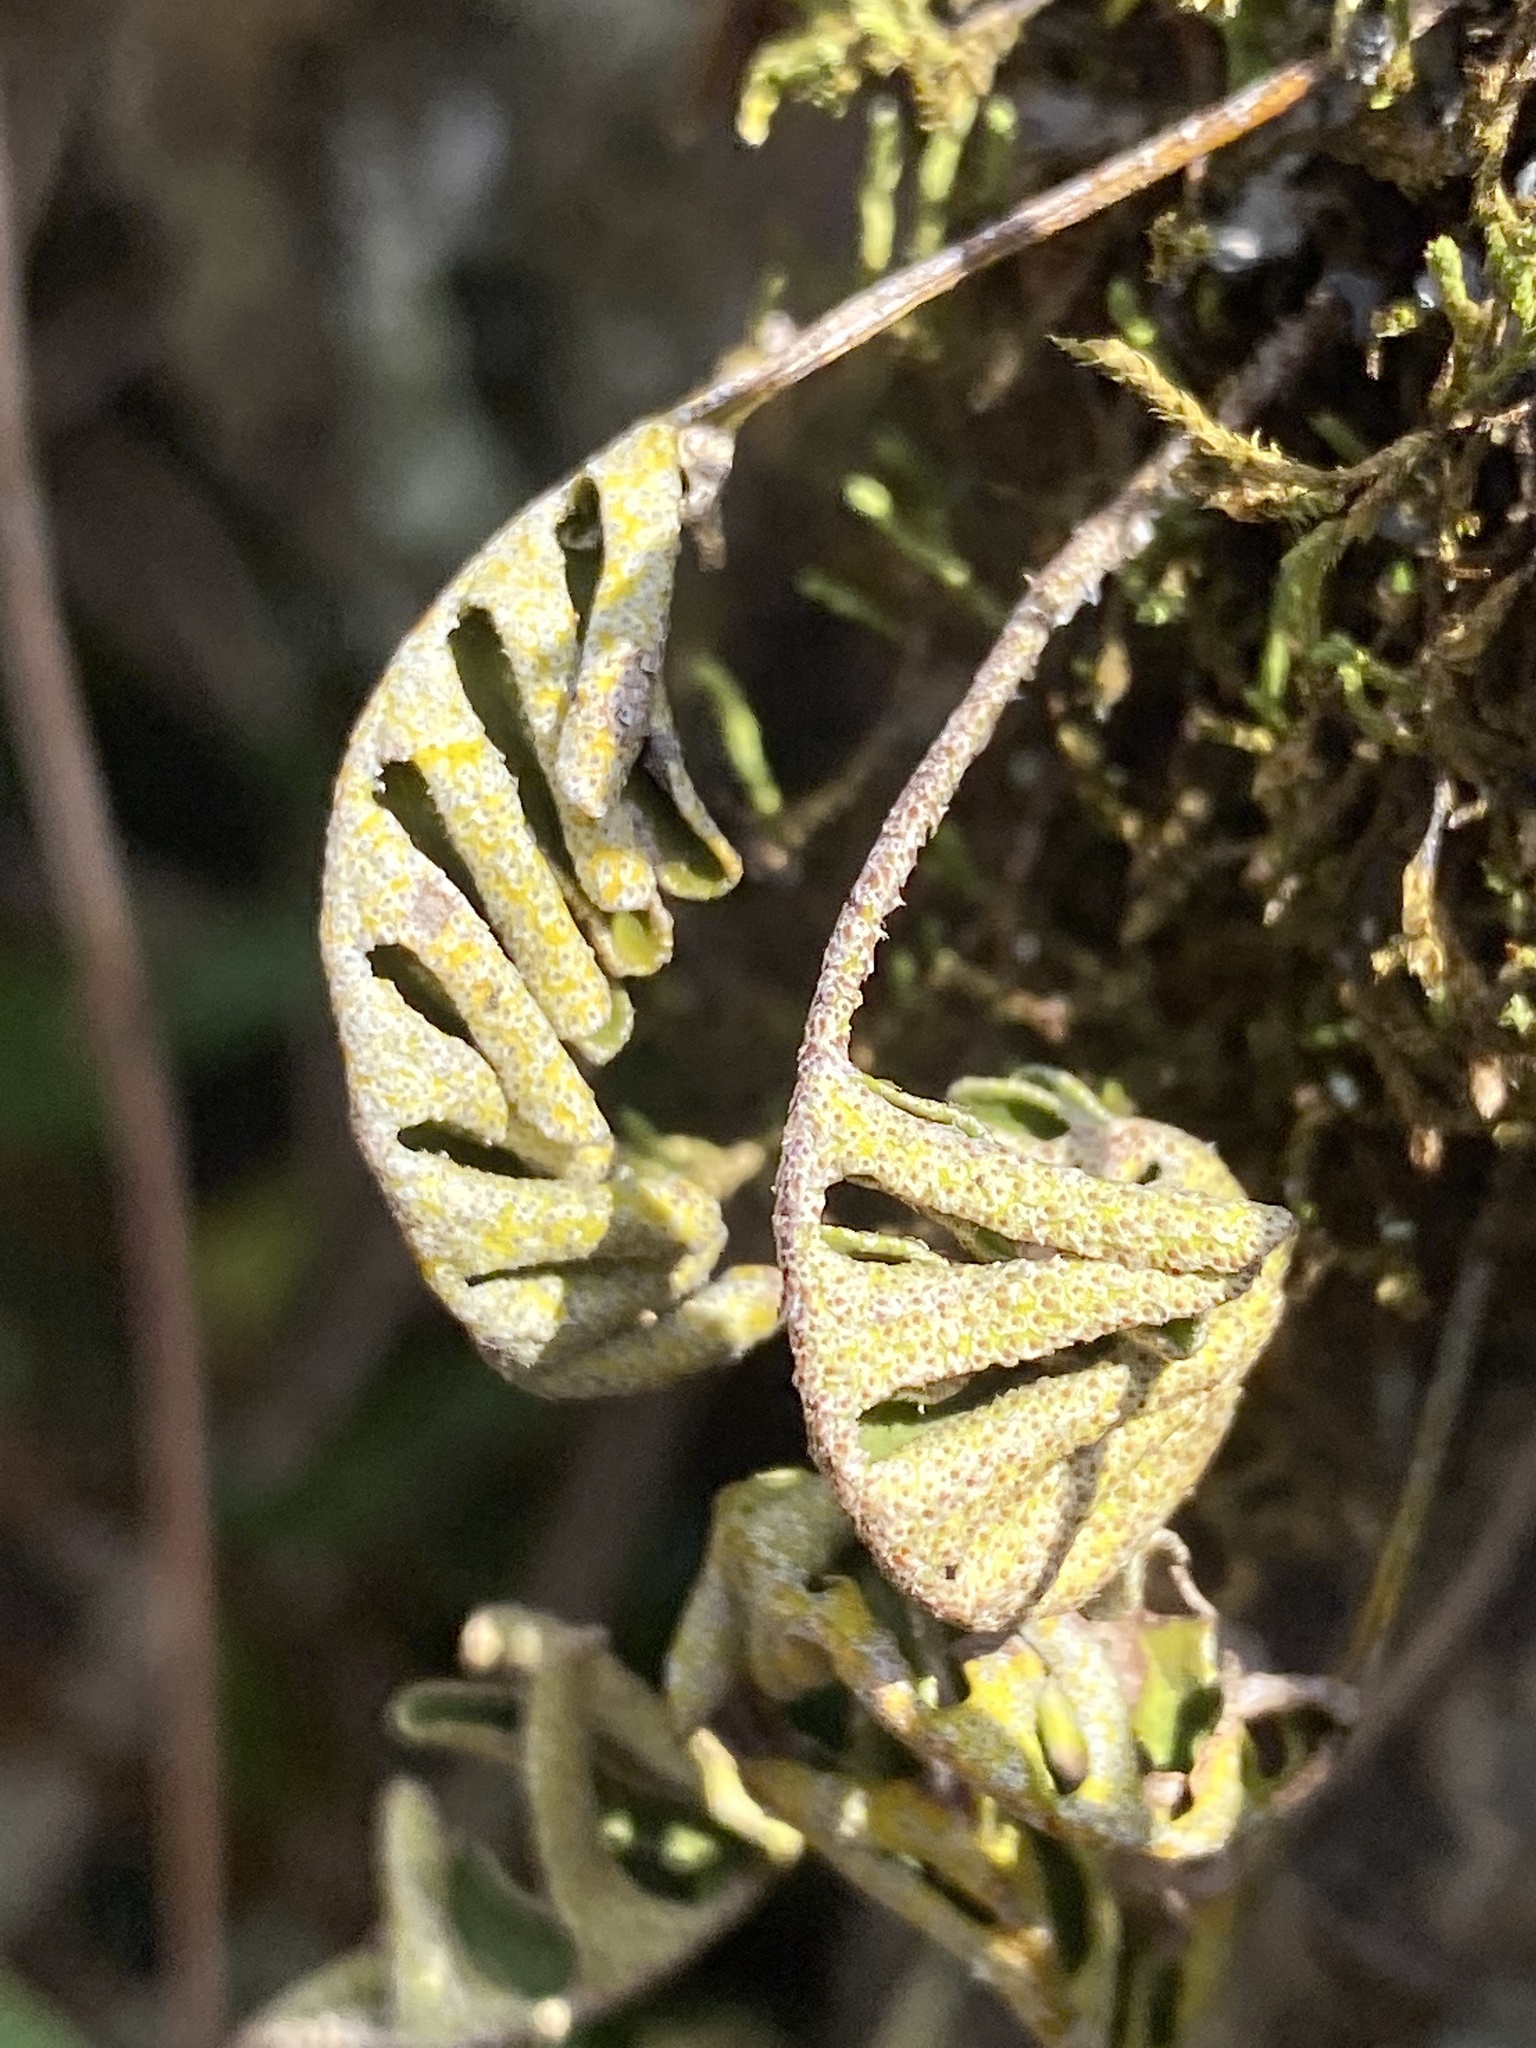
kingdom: Plantae
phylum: Tracheophyta
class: Polypodiopsida
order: Polypodiales
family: Polypodiaceae
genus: Pleopeltis
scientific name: Pleopeltis michauxiana
